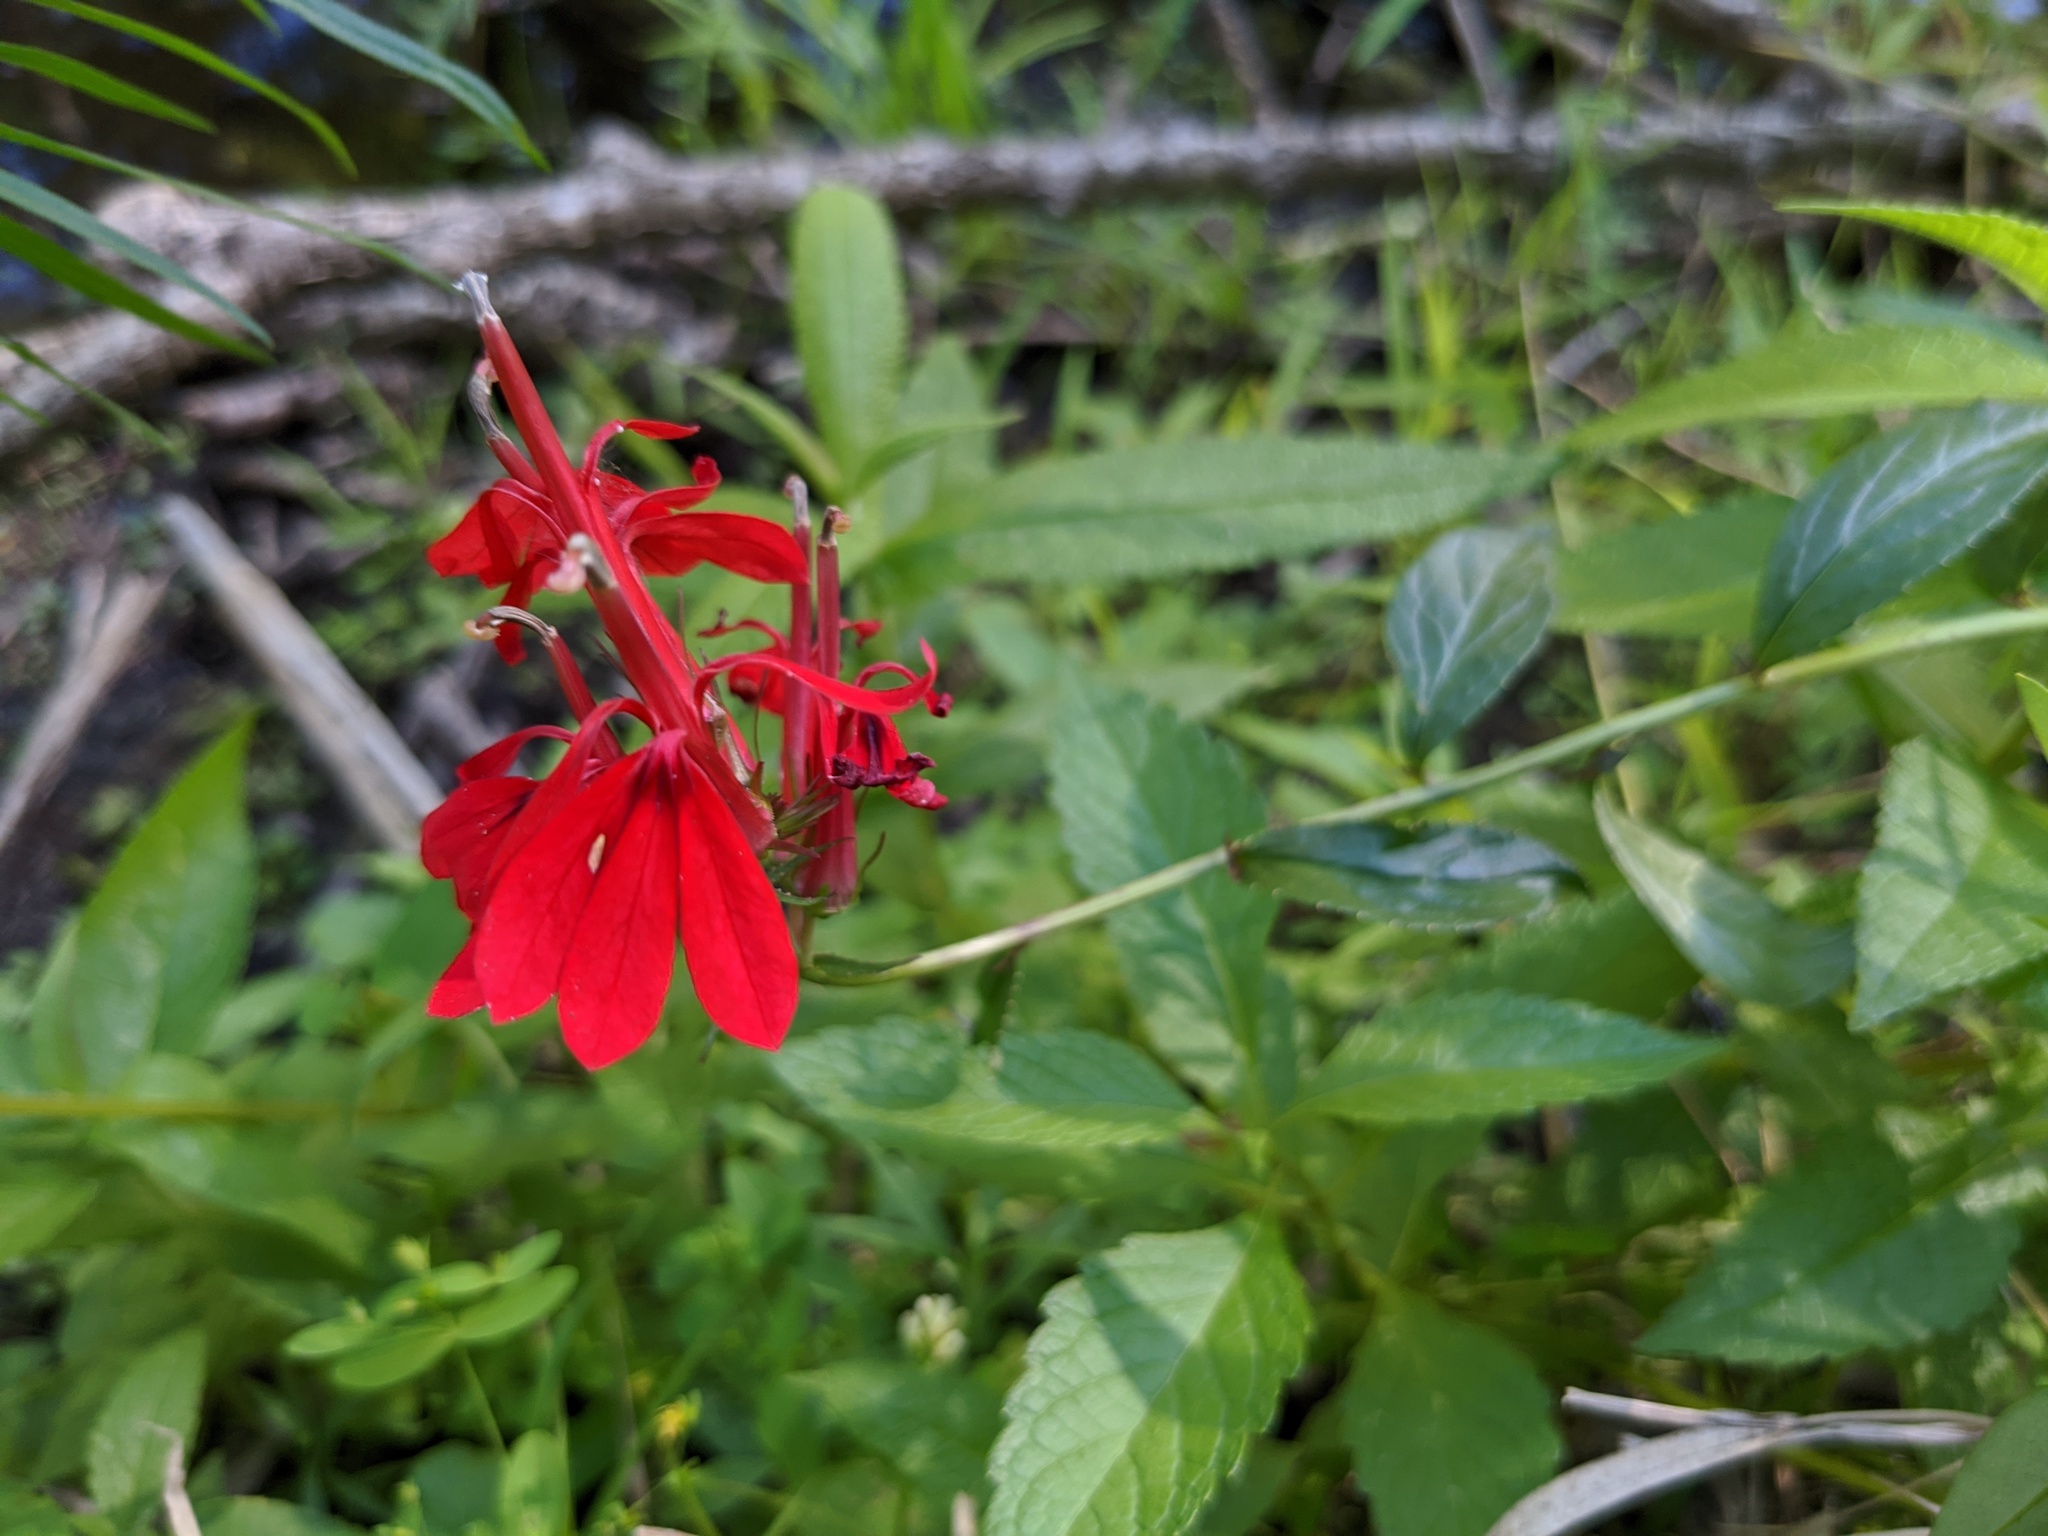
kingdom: Plantae
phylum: Tracheophyta
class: Magnoliopsida
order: Asterales
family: Campanulaceae
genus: Lobelia
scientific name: Lobelia cardinalis
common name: Cardinal flower
